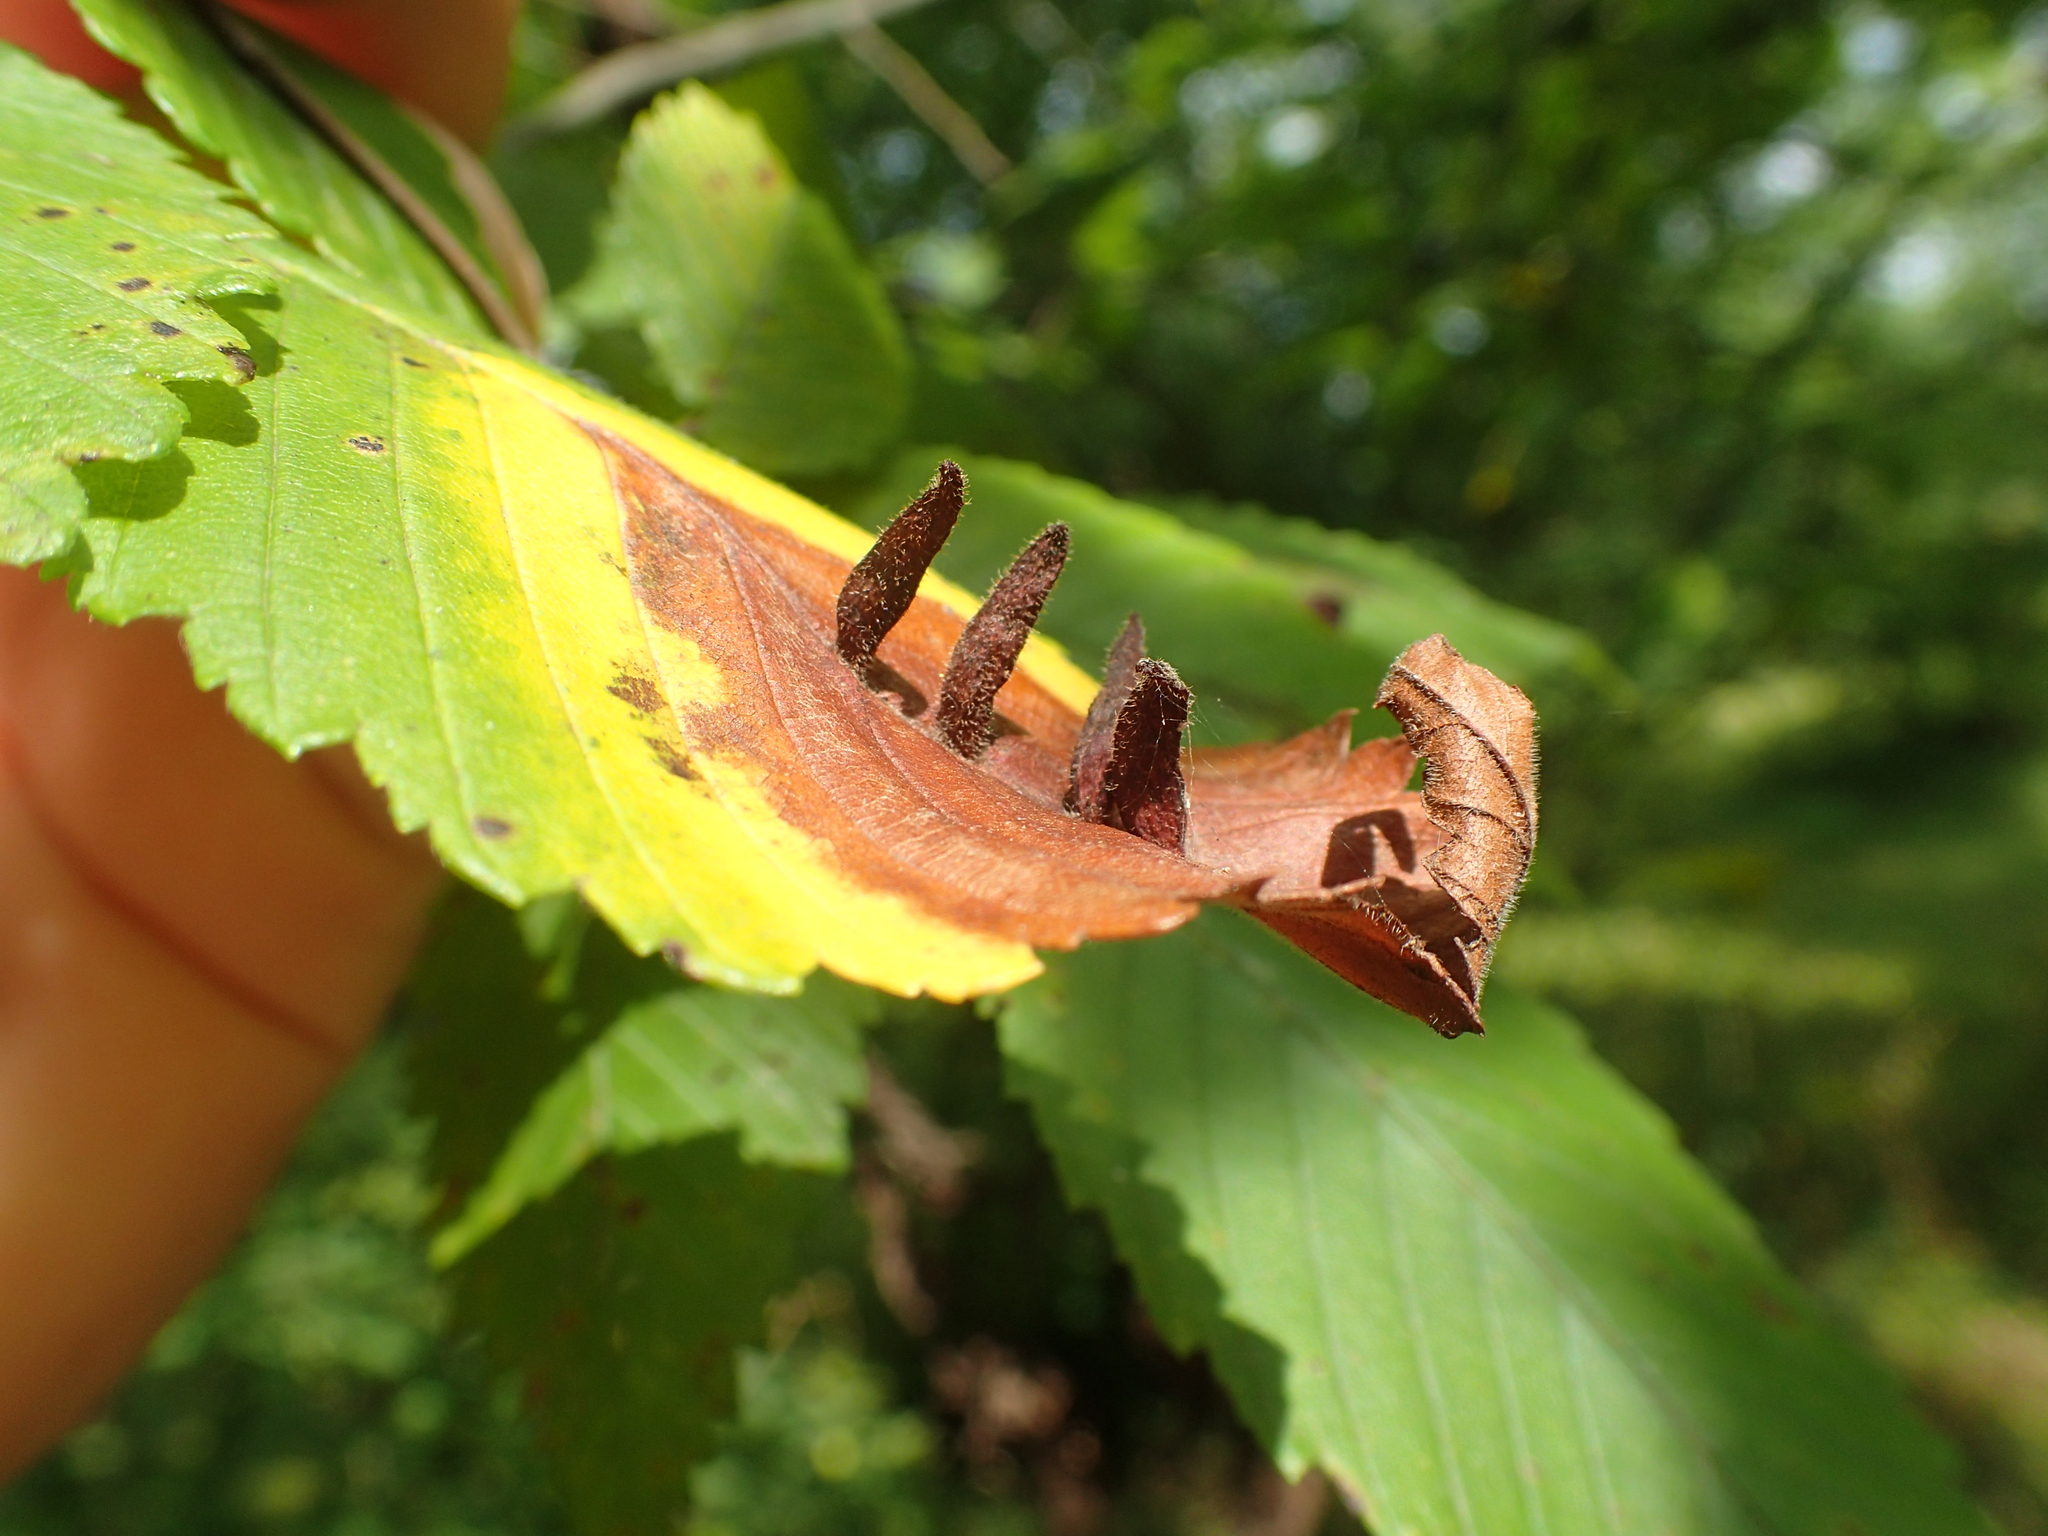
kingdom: Animalia
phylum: Arthropoda
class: Arachnida
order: Trombidiformes
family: Eriophyidae
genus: Aceria
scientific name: Aceria
